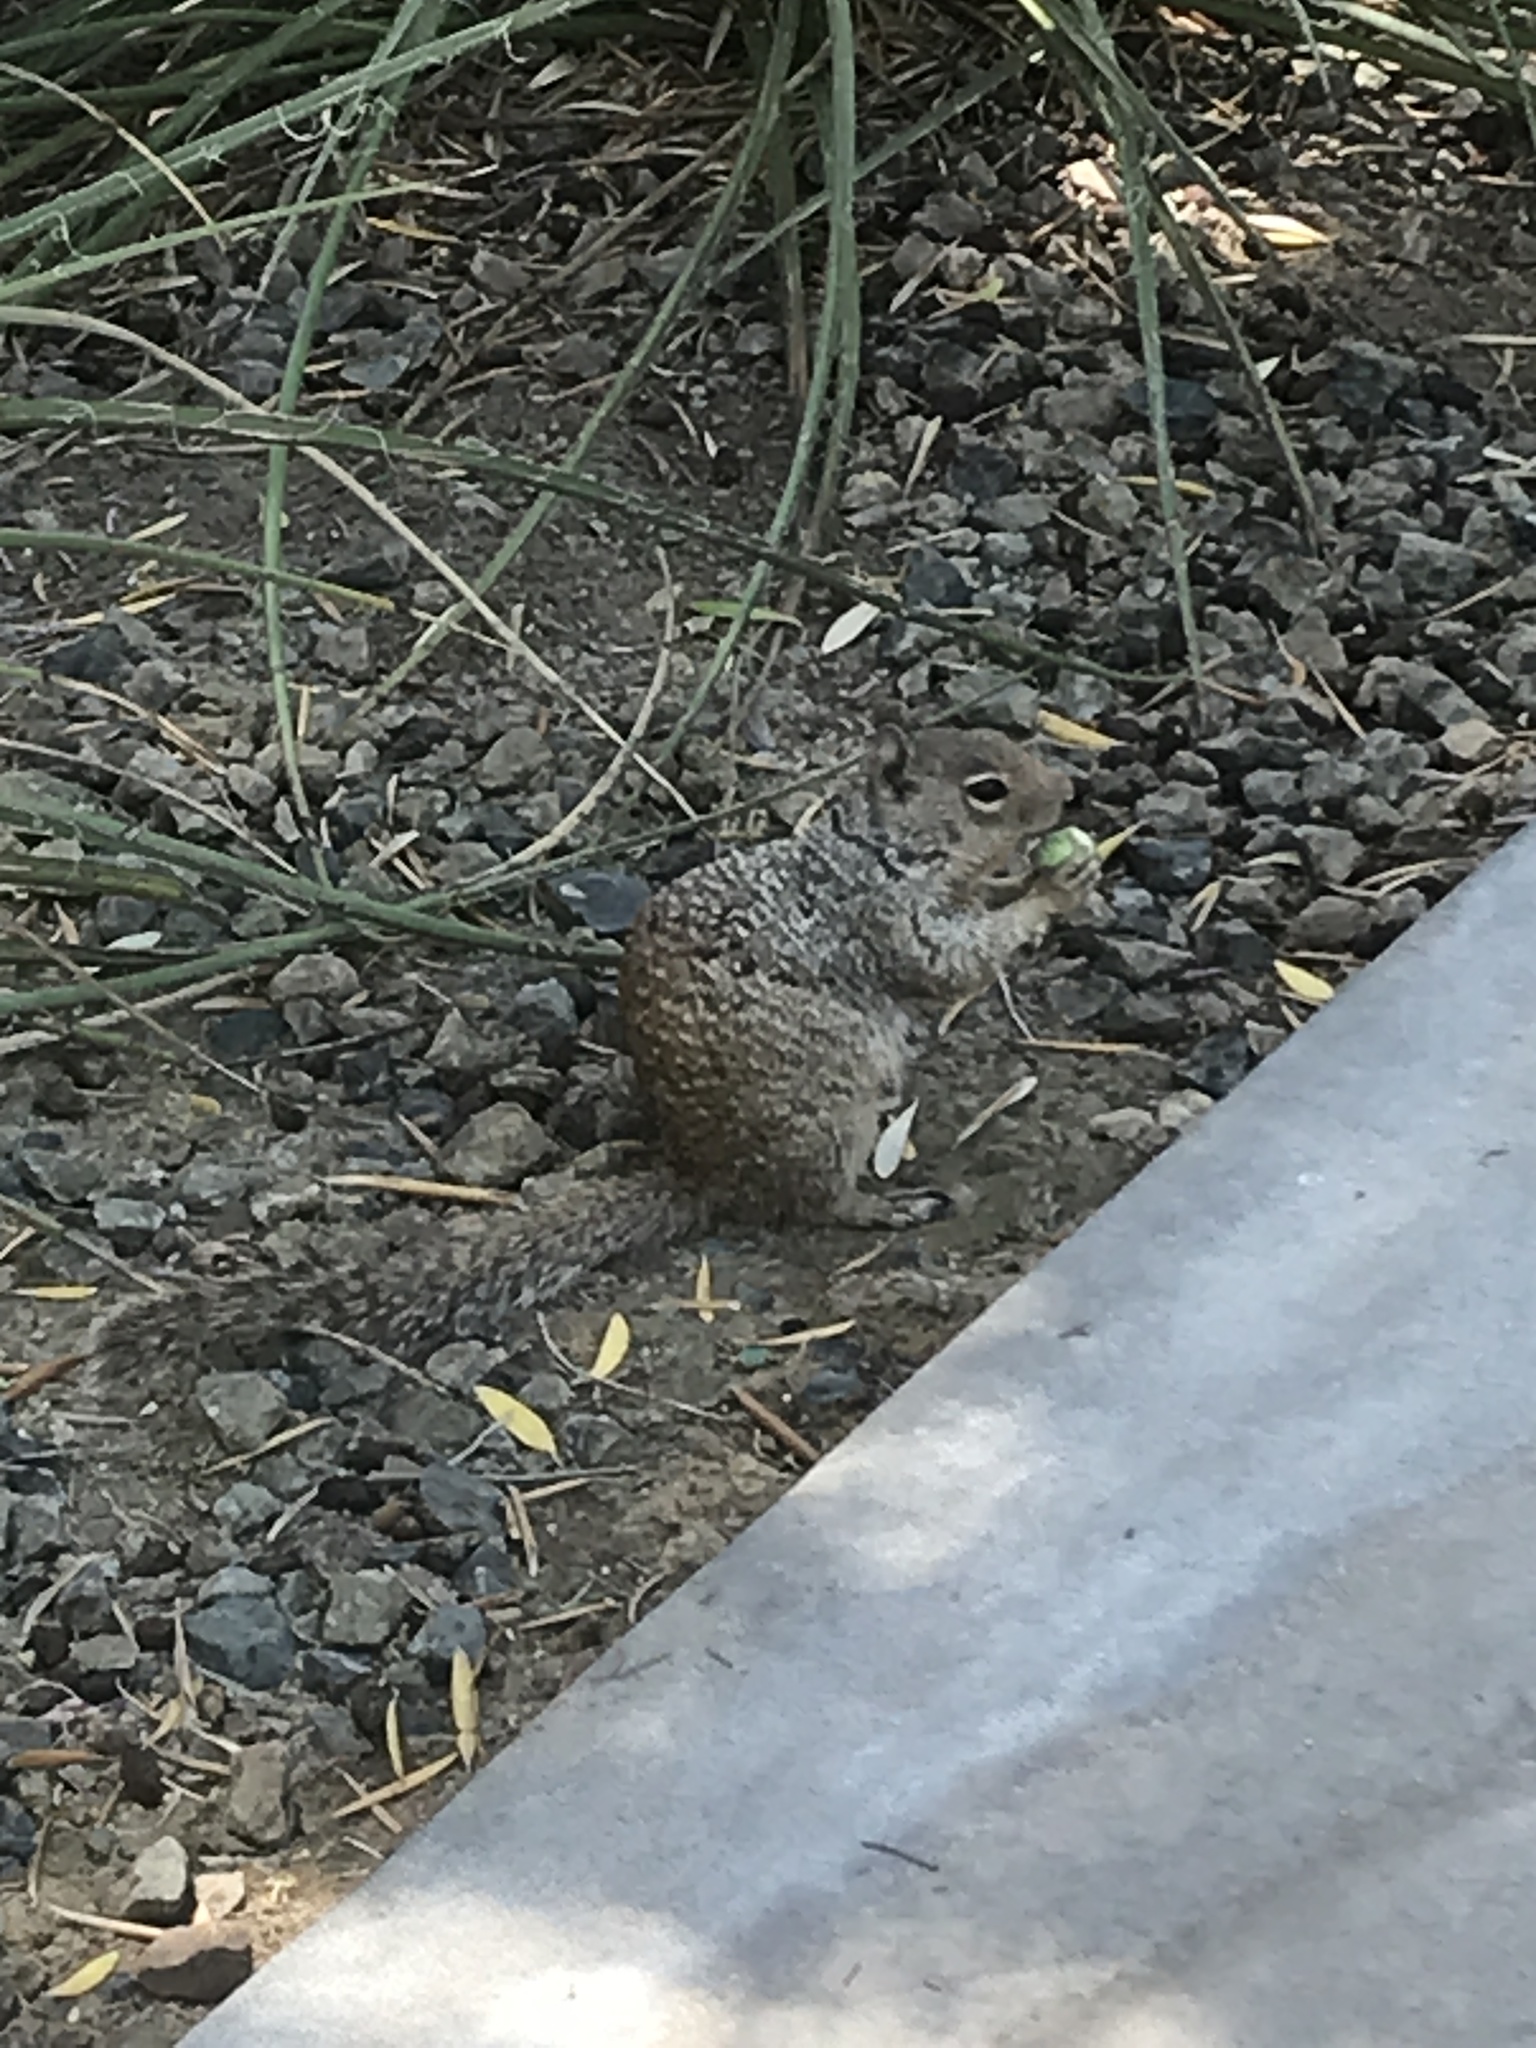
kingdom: Animalia
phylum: Chordata
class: Mammalia
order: Rodentia
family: Sciuridae
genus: Otospermophilus
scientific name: Otospermophilus variegatus
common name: Rock squirrel
